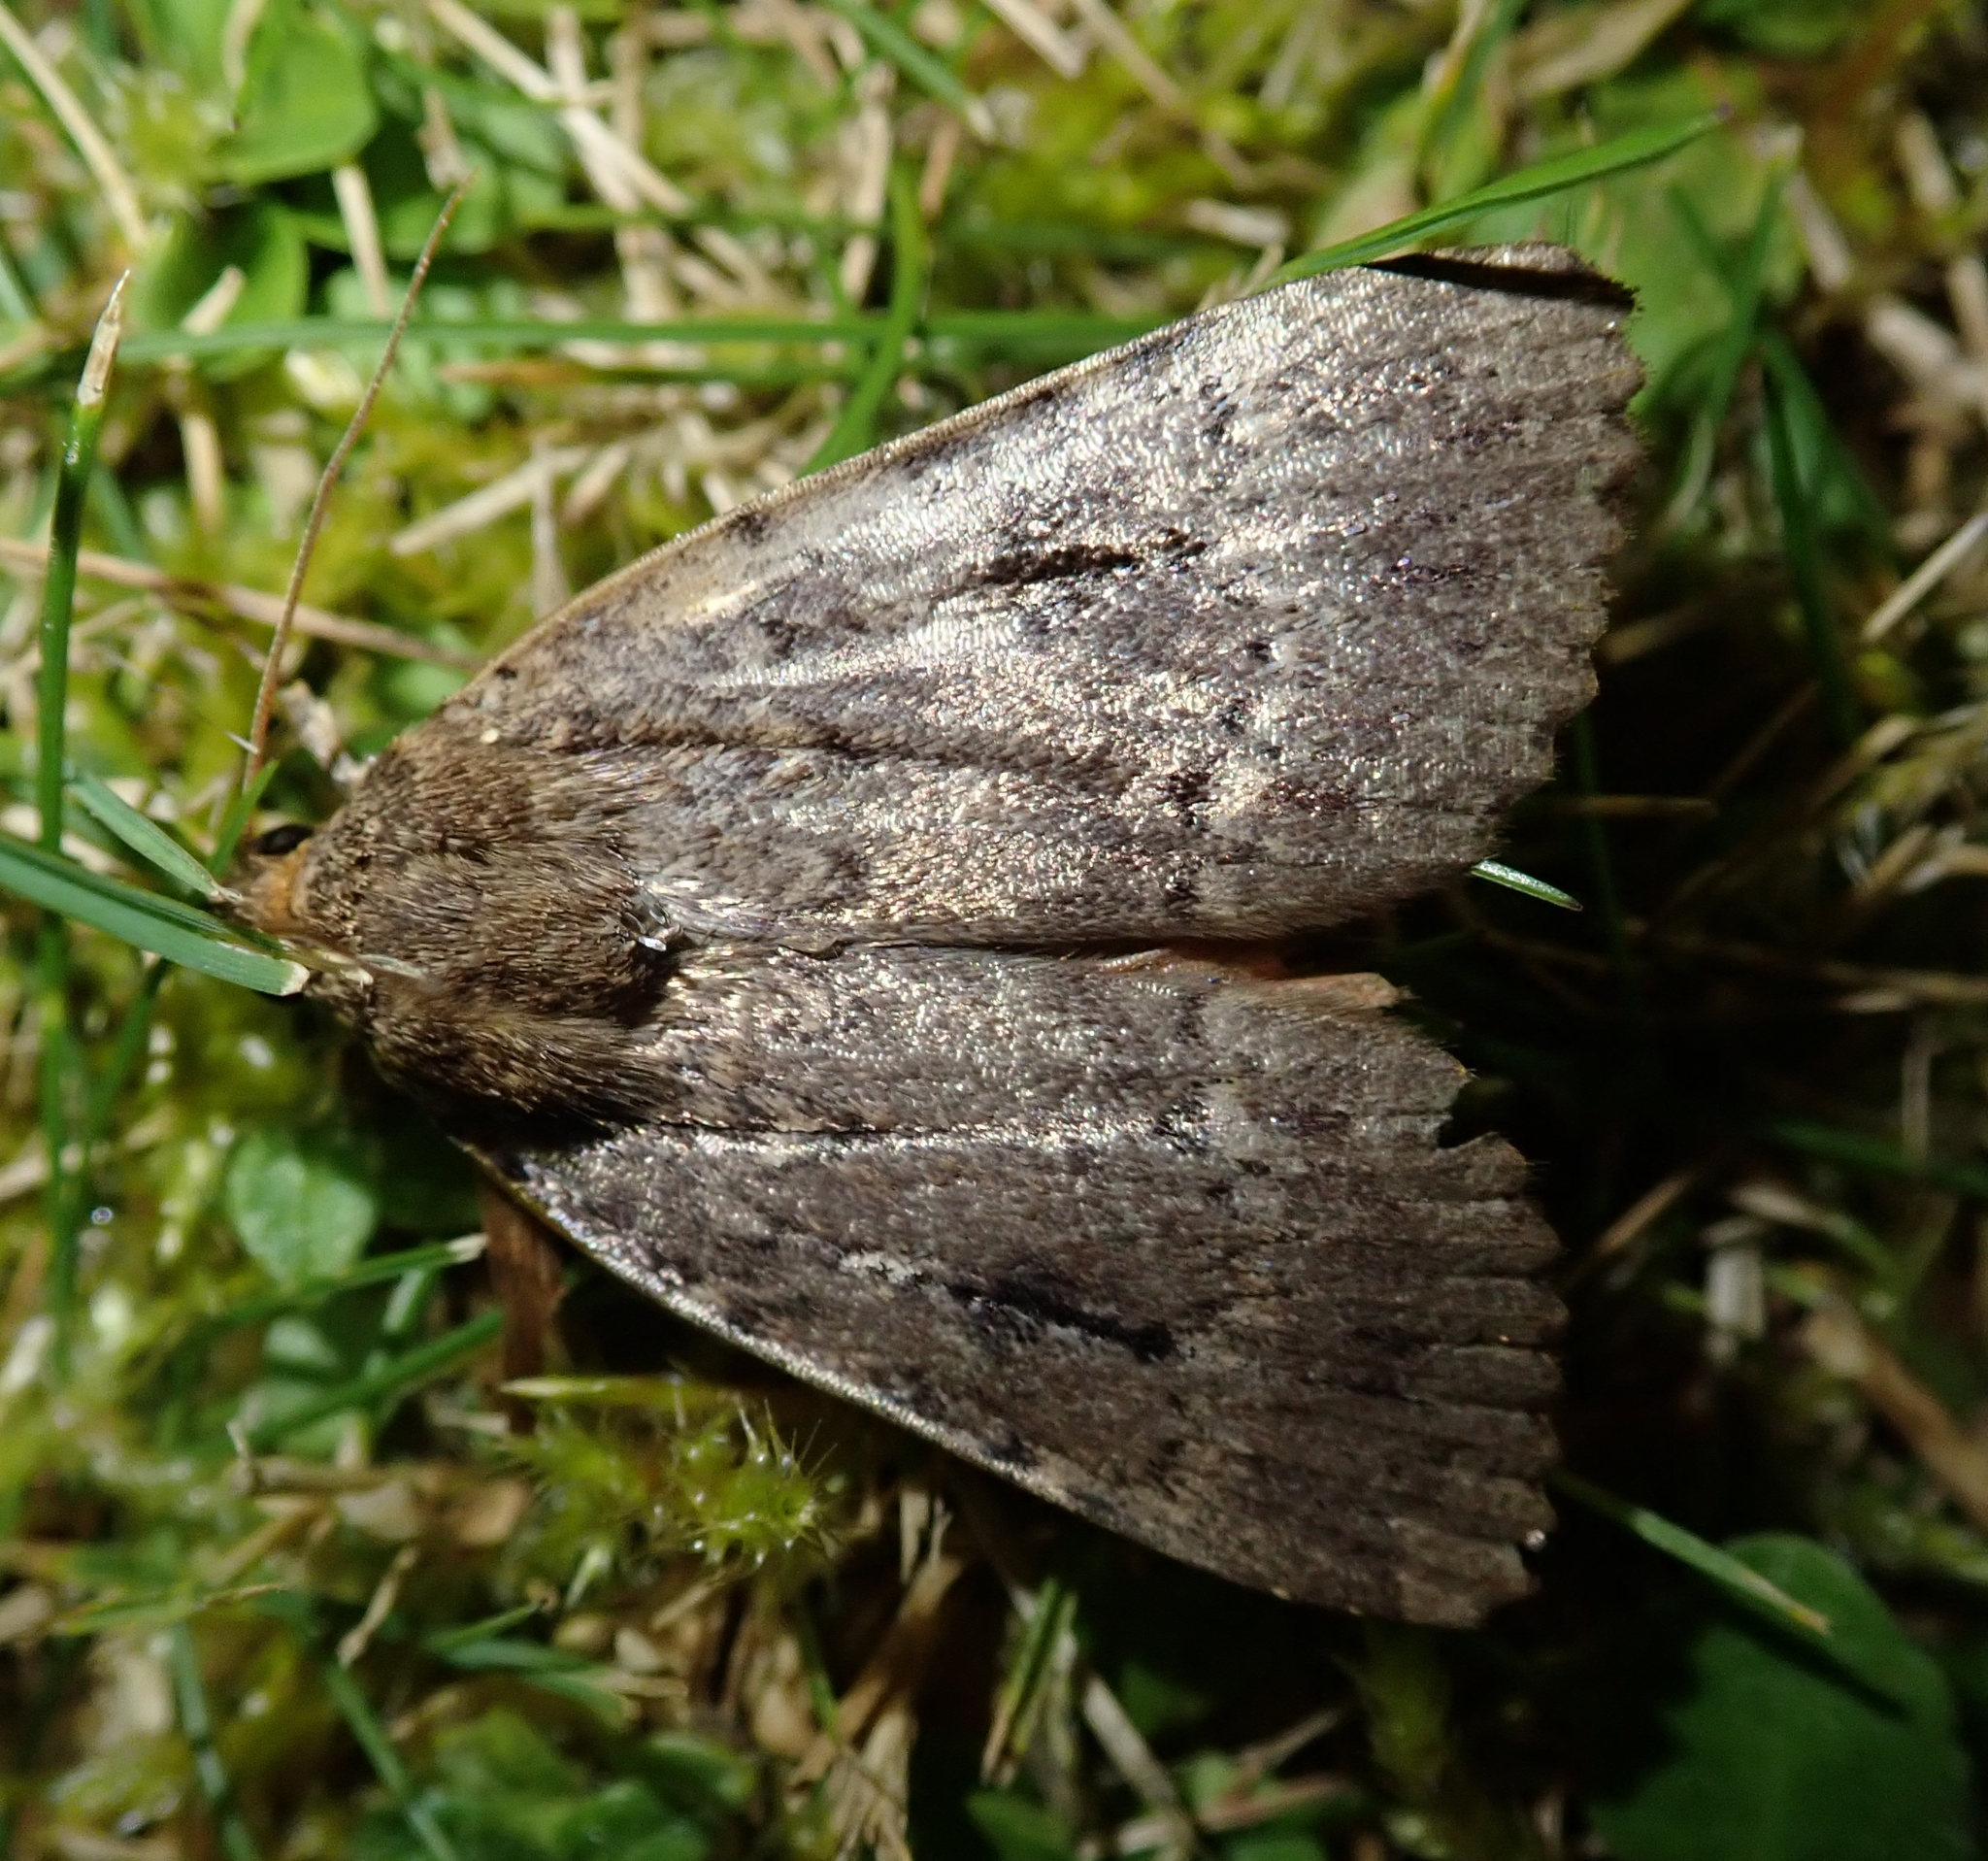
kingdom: Animalia
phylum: Arthropoda
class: Insecta
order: Lepidoptera
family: Noctuidae
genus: Amphipyra
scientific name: Amphipyra
